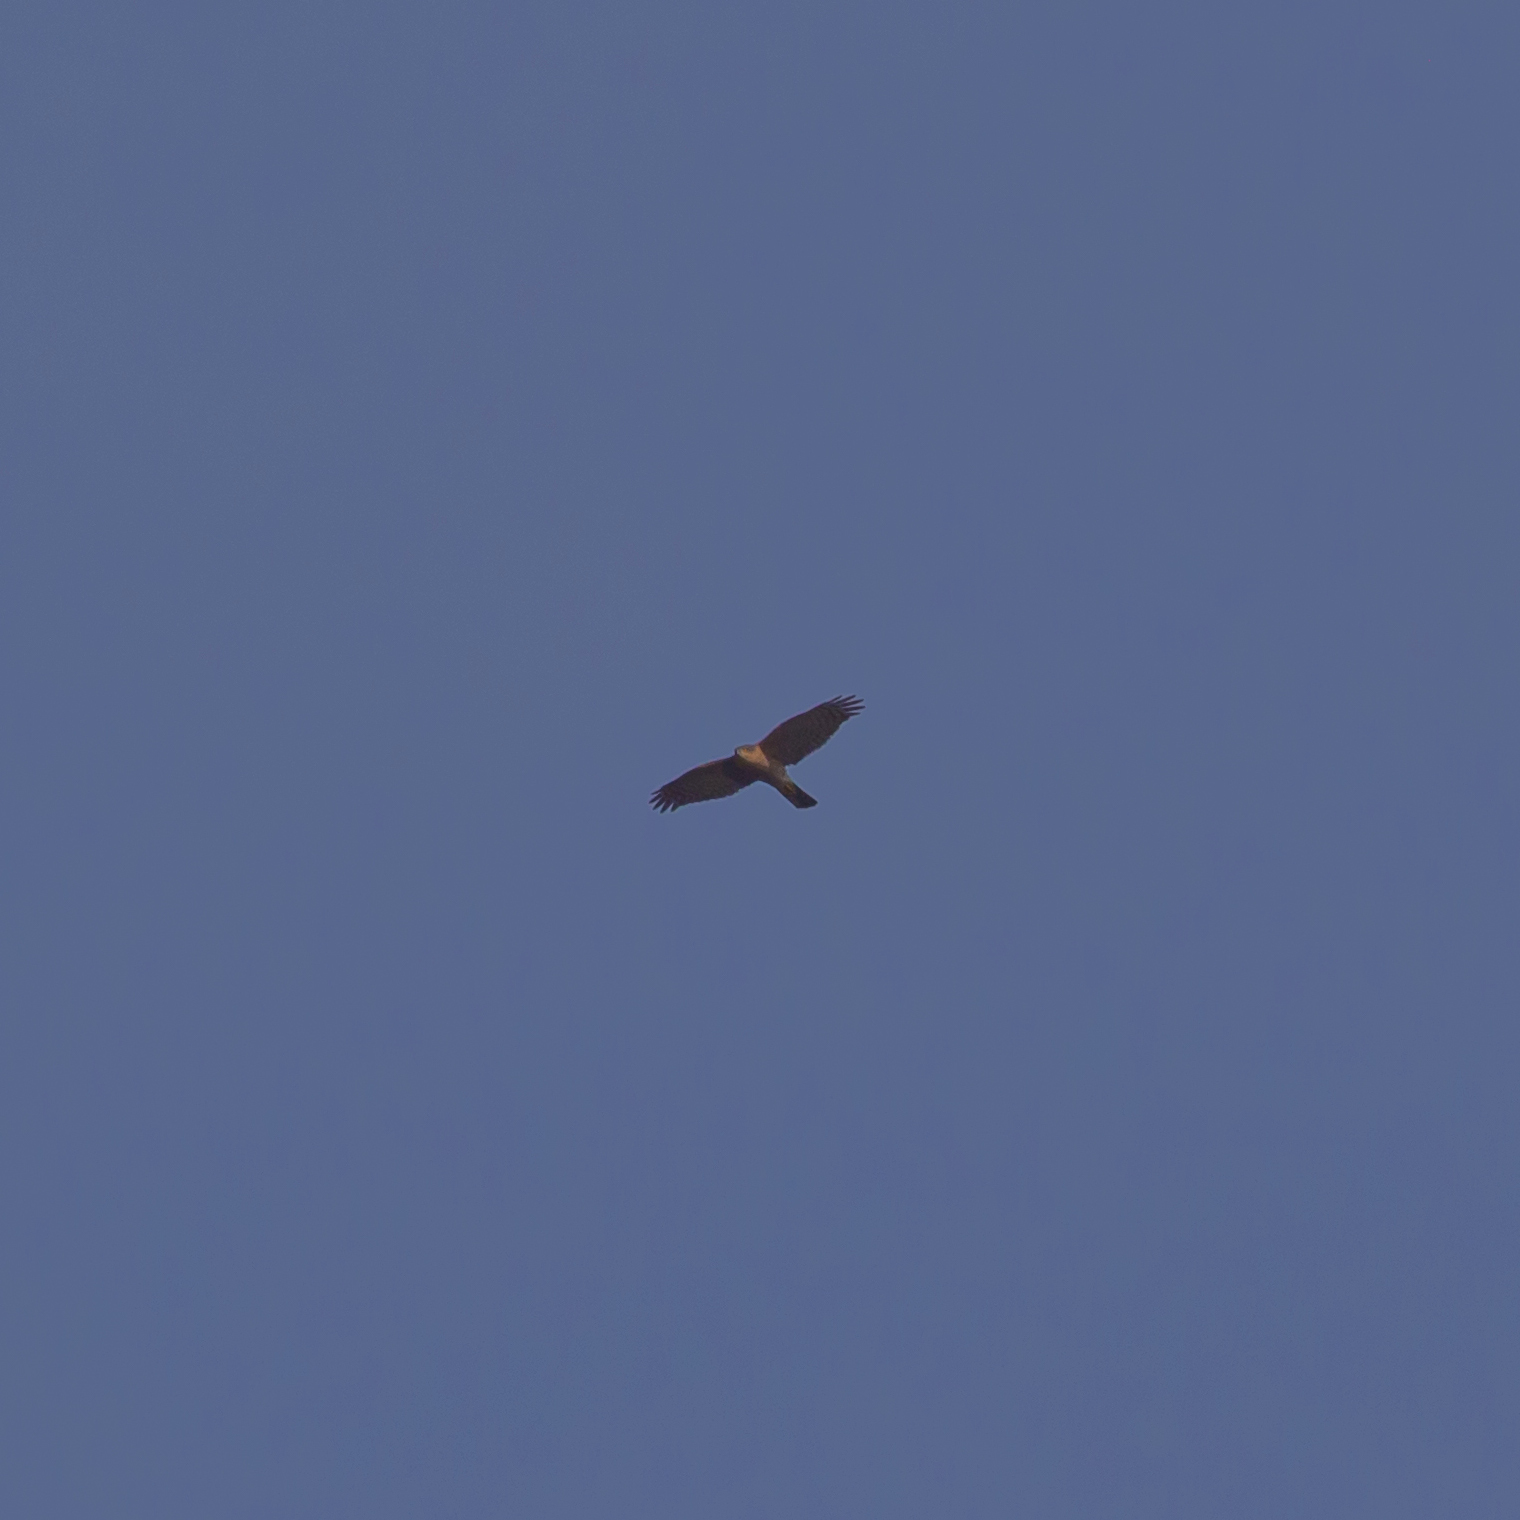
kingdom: Animalia
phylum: Chordata
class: Aves
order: Accipitriformes
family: Accipitridae
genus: Accipiter
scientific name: Accipiter nisus
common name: Eurasian sparrowhawk
